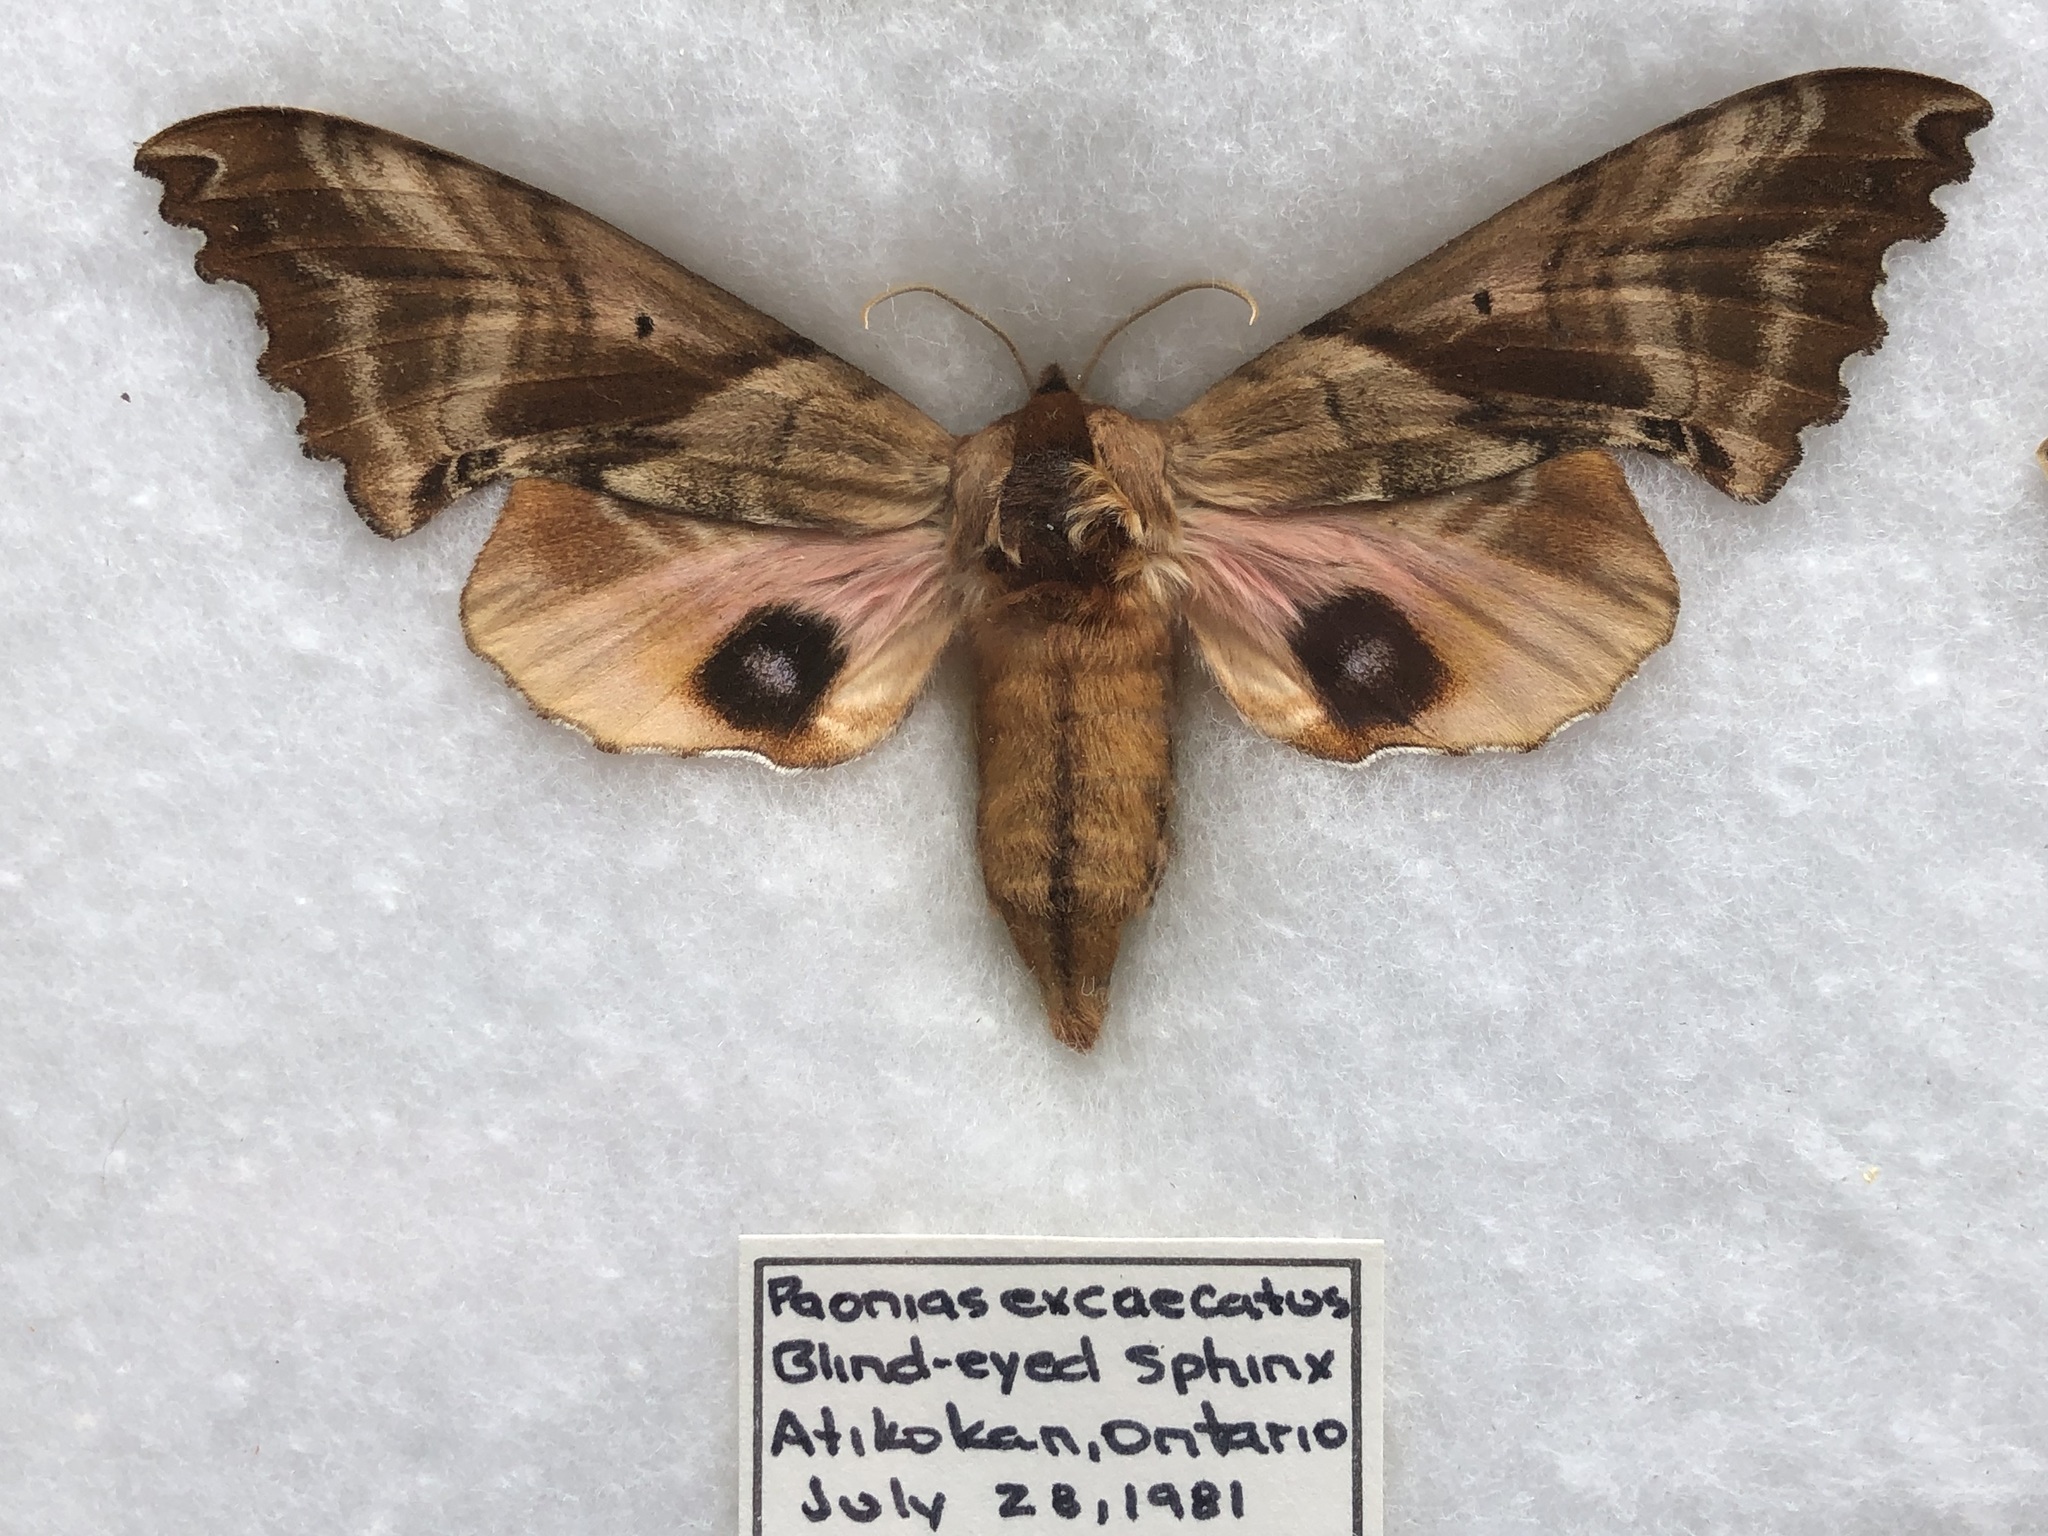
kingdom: Animalia
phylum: Arthropoda
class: Insecta
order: Lepidoptera
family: Sphingidae
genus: Paonias
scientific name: Paonias excaecata
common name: Blind-eyed sphinx
